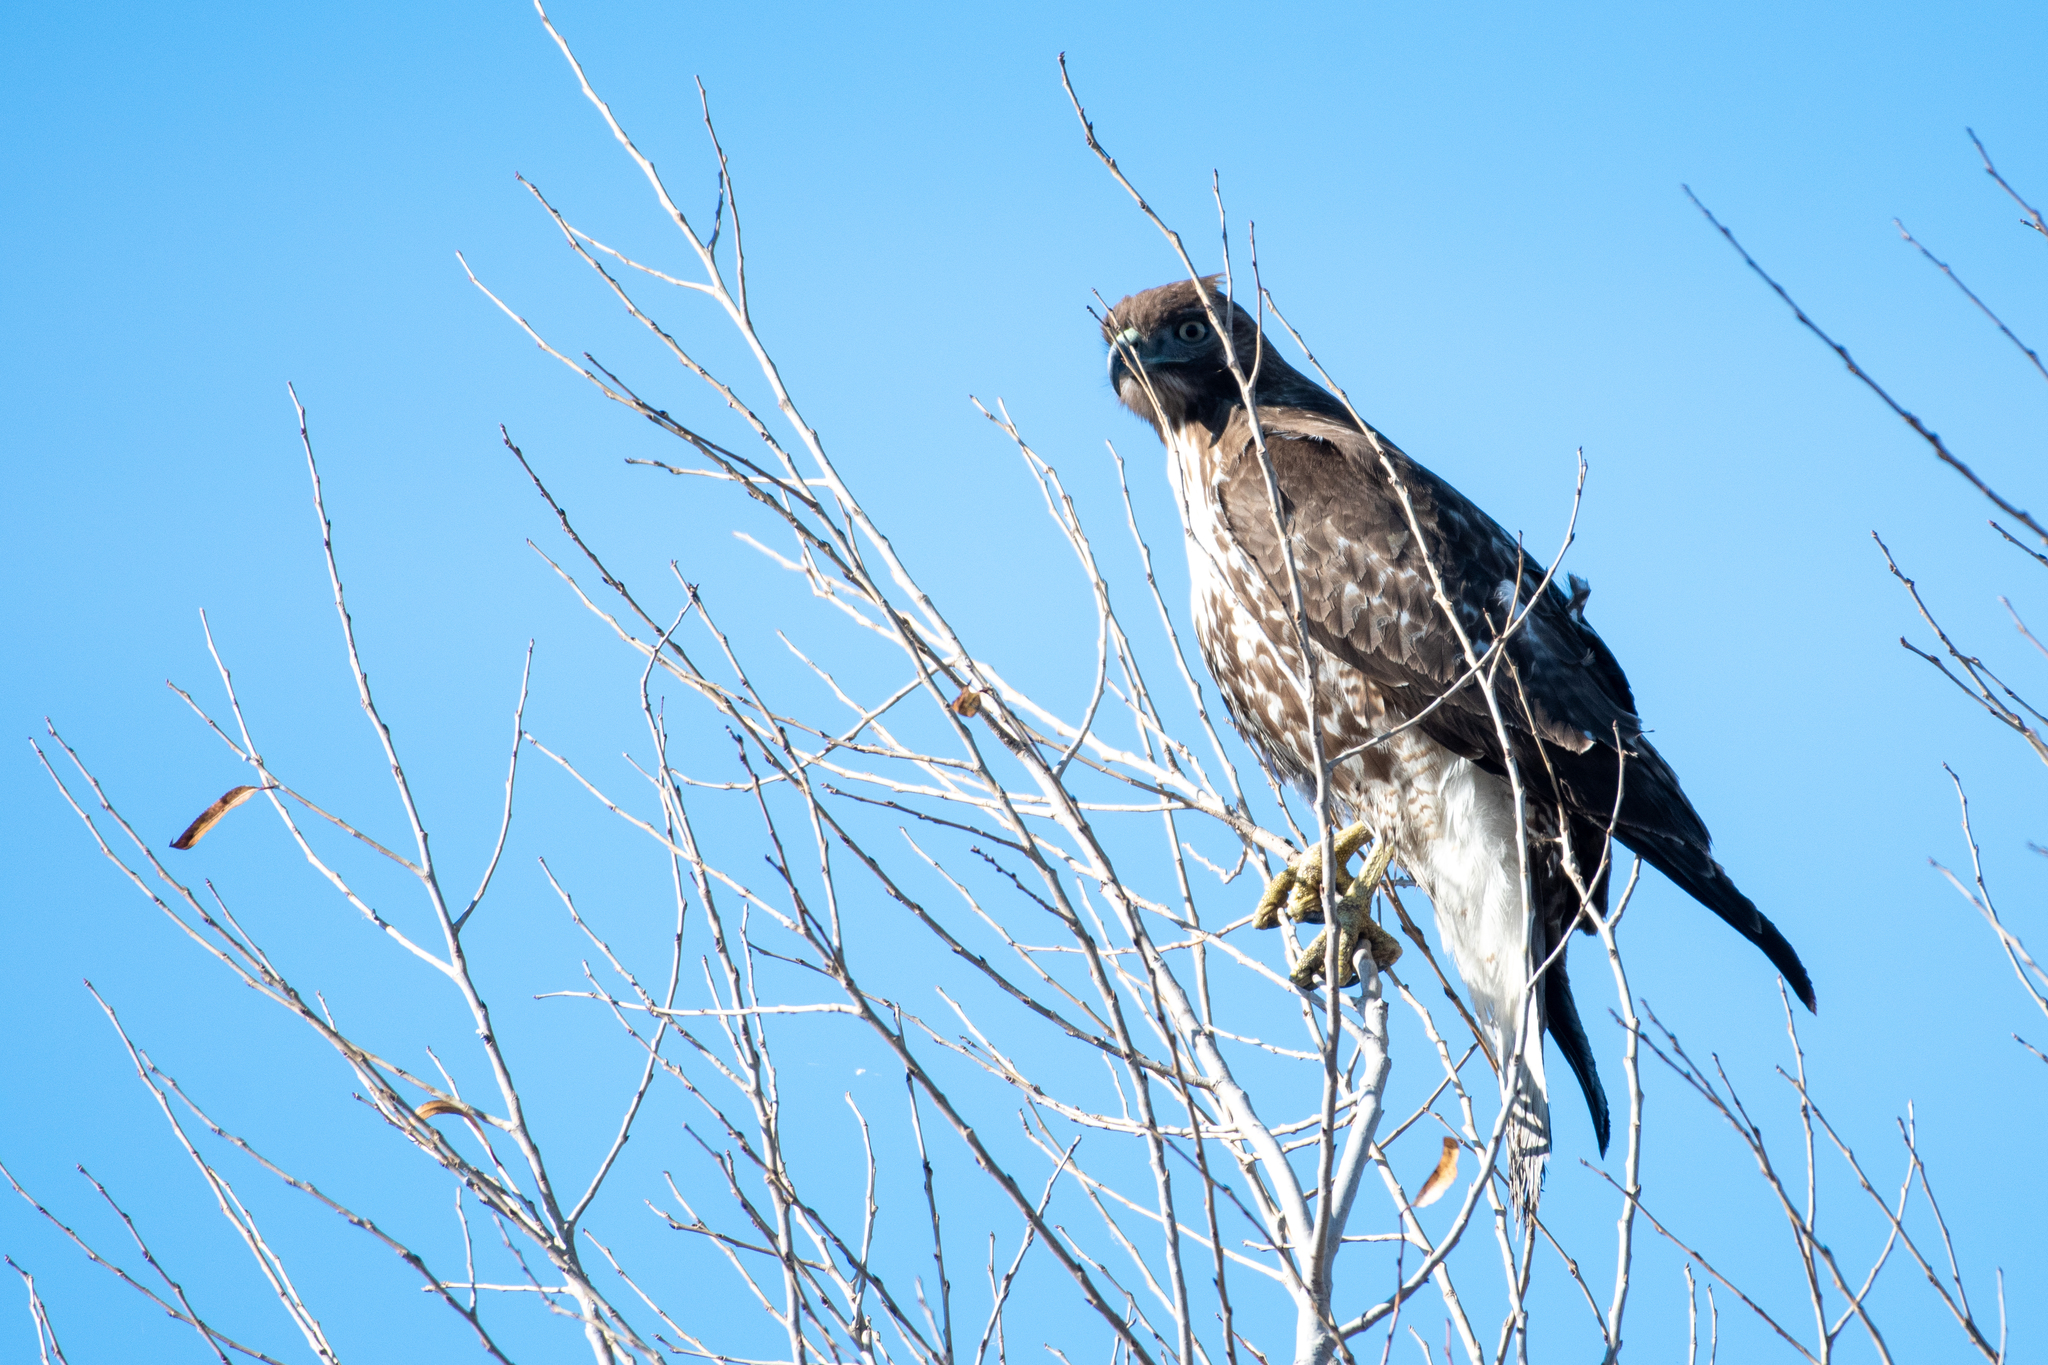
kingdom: Animalia
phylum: Chordata
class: Aves
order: Accipitriformes
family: Accipitridae
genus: Buteo
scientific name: Buteo jamaicensis
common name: Red-tailed hawk
